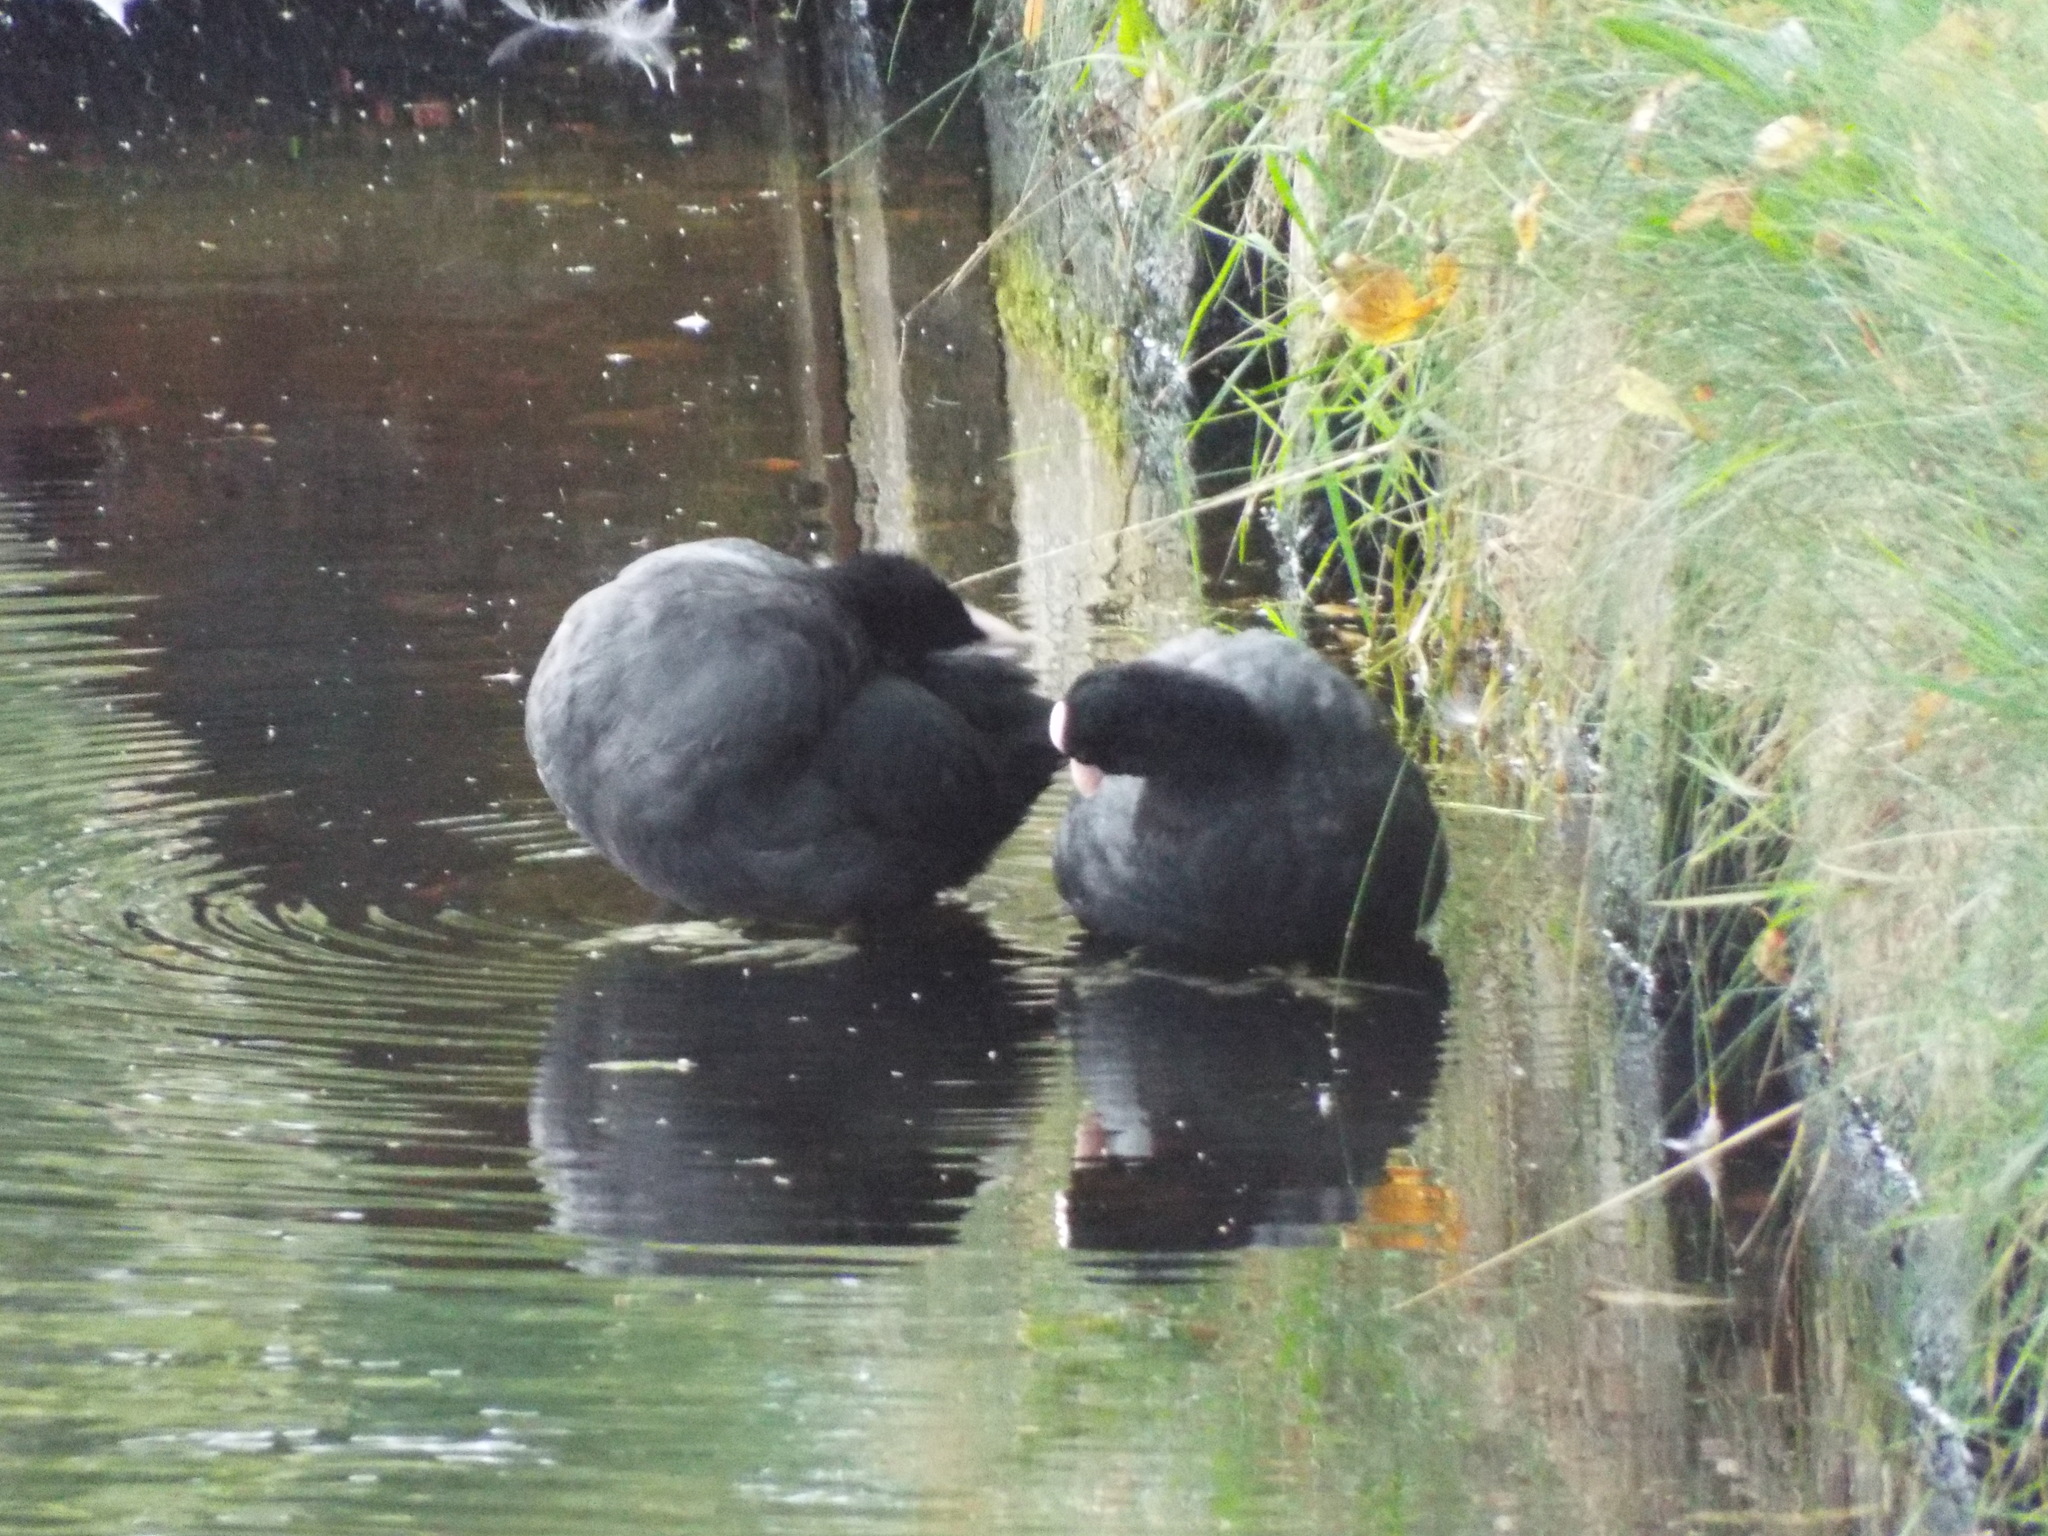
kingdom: Animalia
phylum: Chordata
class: Aves
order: Gruiformes
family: Rallidae
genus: Fulica
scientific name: Fulica atra
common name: Eurasian coot
